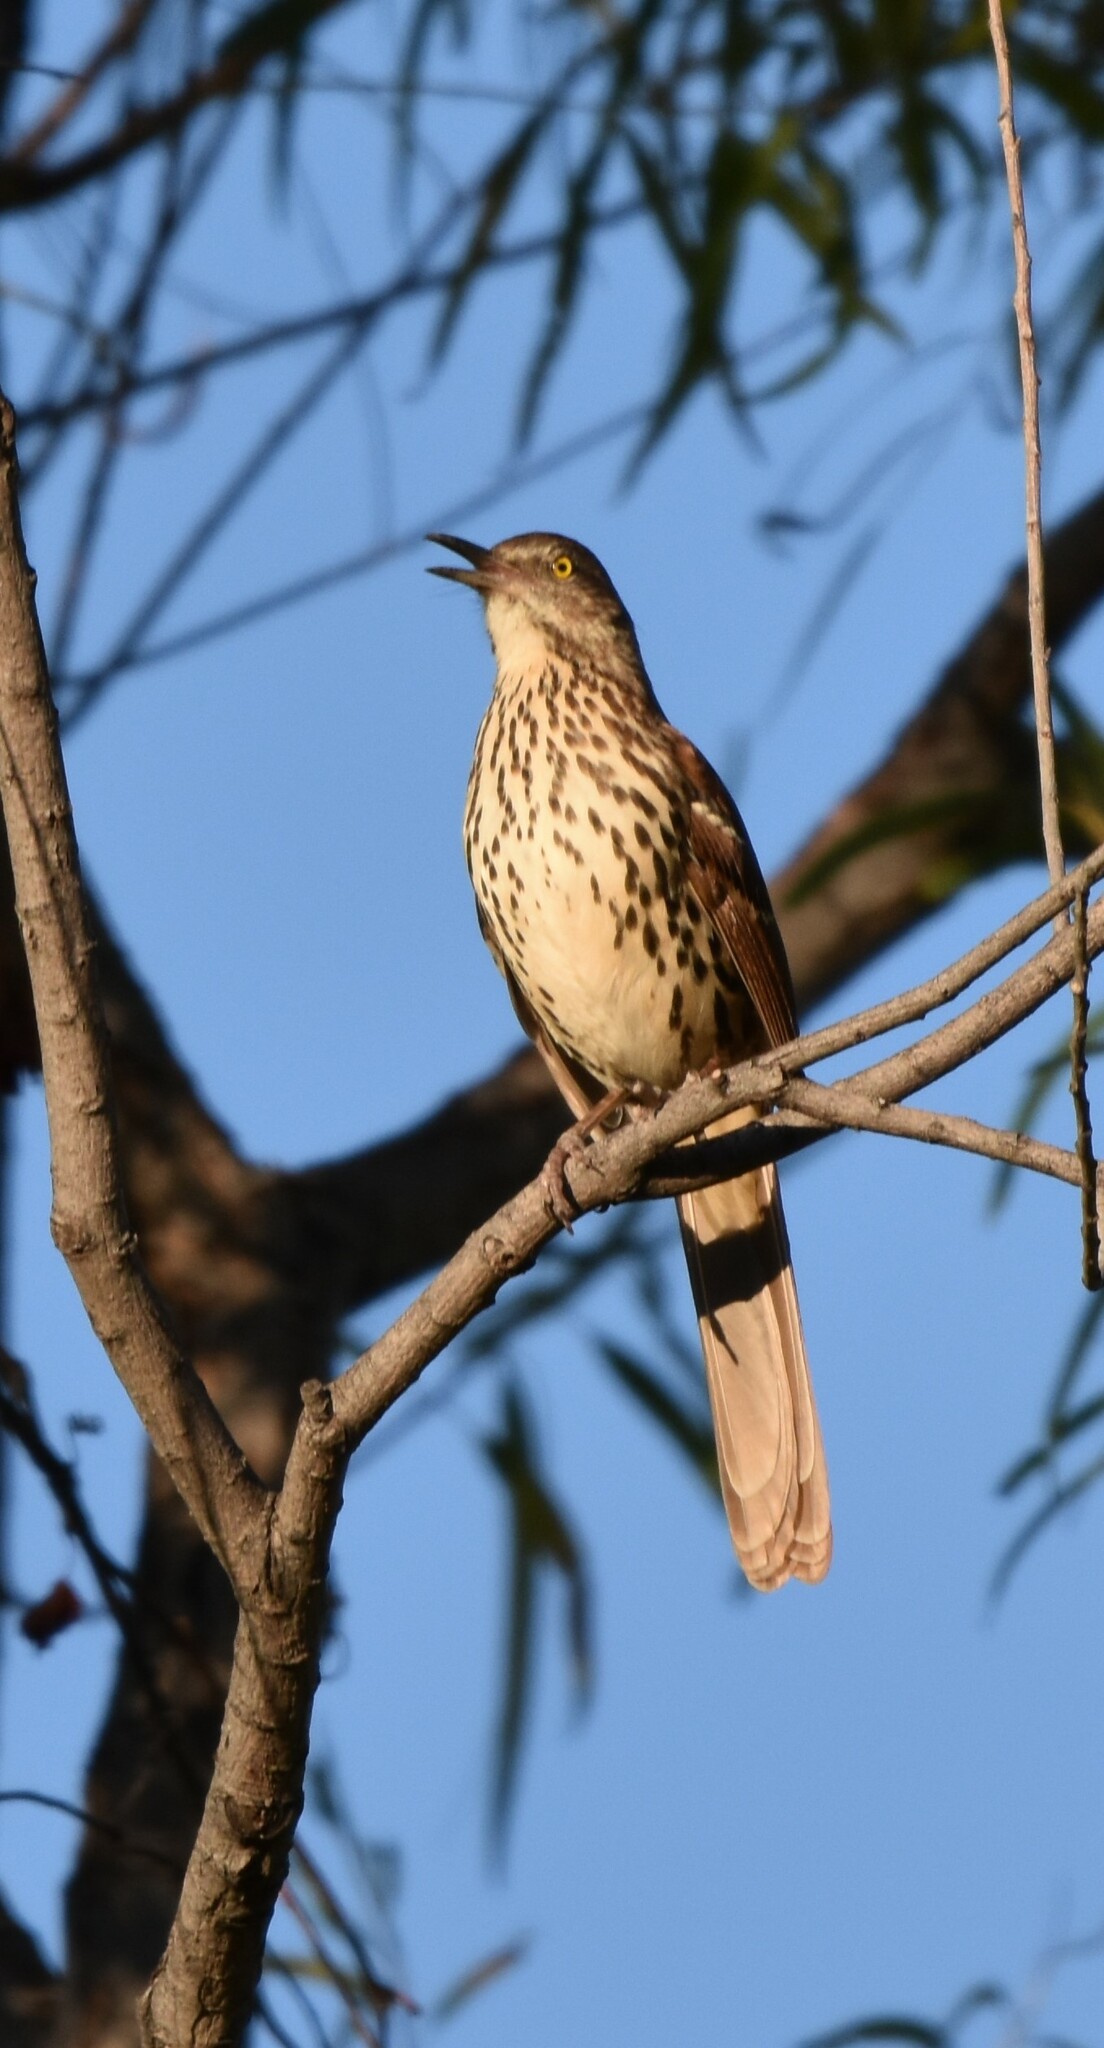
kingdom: Animalia
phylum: Chordata
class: Aves
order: Passeriformes
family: Mimidae
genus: Toxostoma
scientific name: Toxostoma rufum
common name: Brown thrasher
